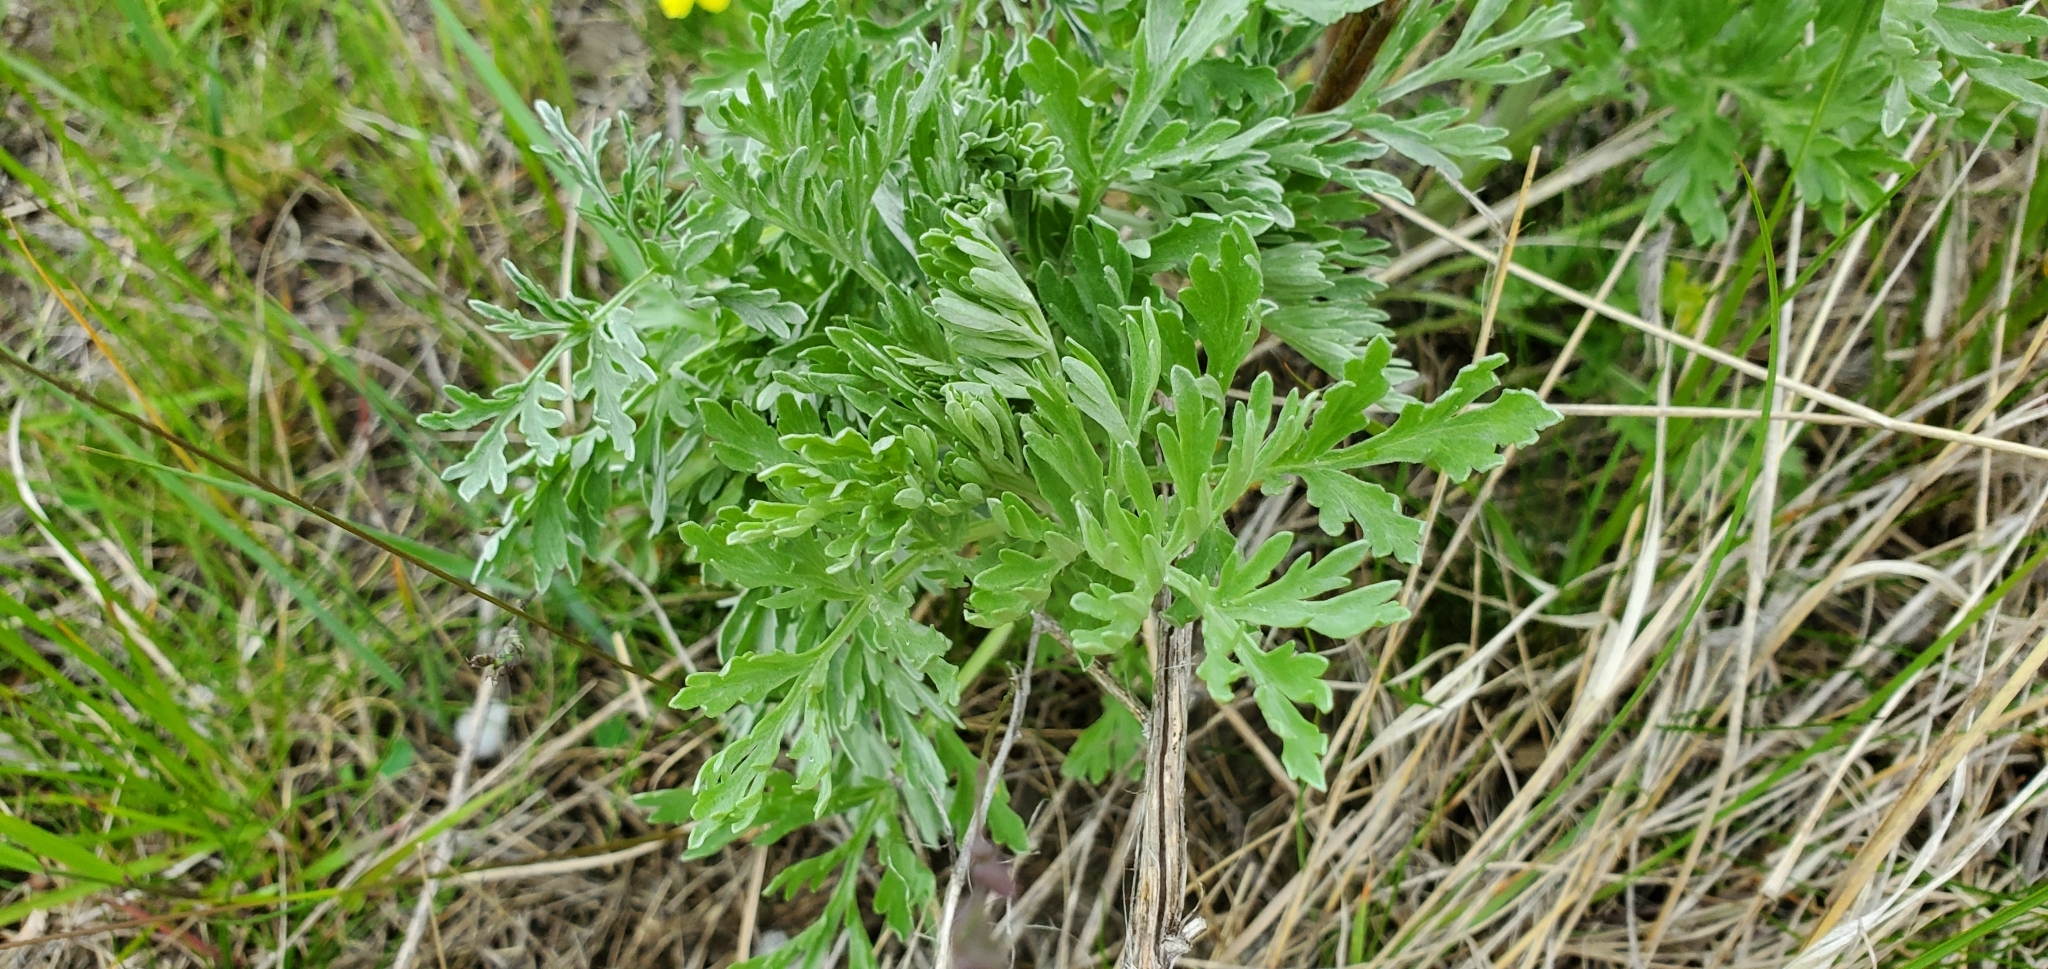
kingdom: Plantae
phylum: Tracheophyta
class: Magnoliopsida
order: Asterales
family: Asteraceae
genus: Artemisia
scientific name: Artemisia absinthium
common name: Wormwood
